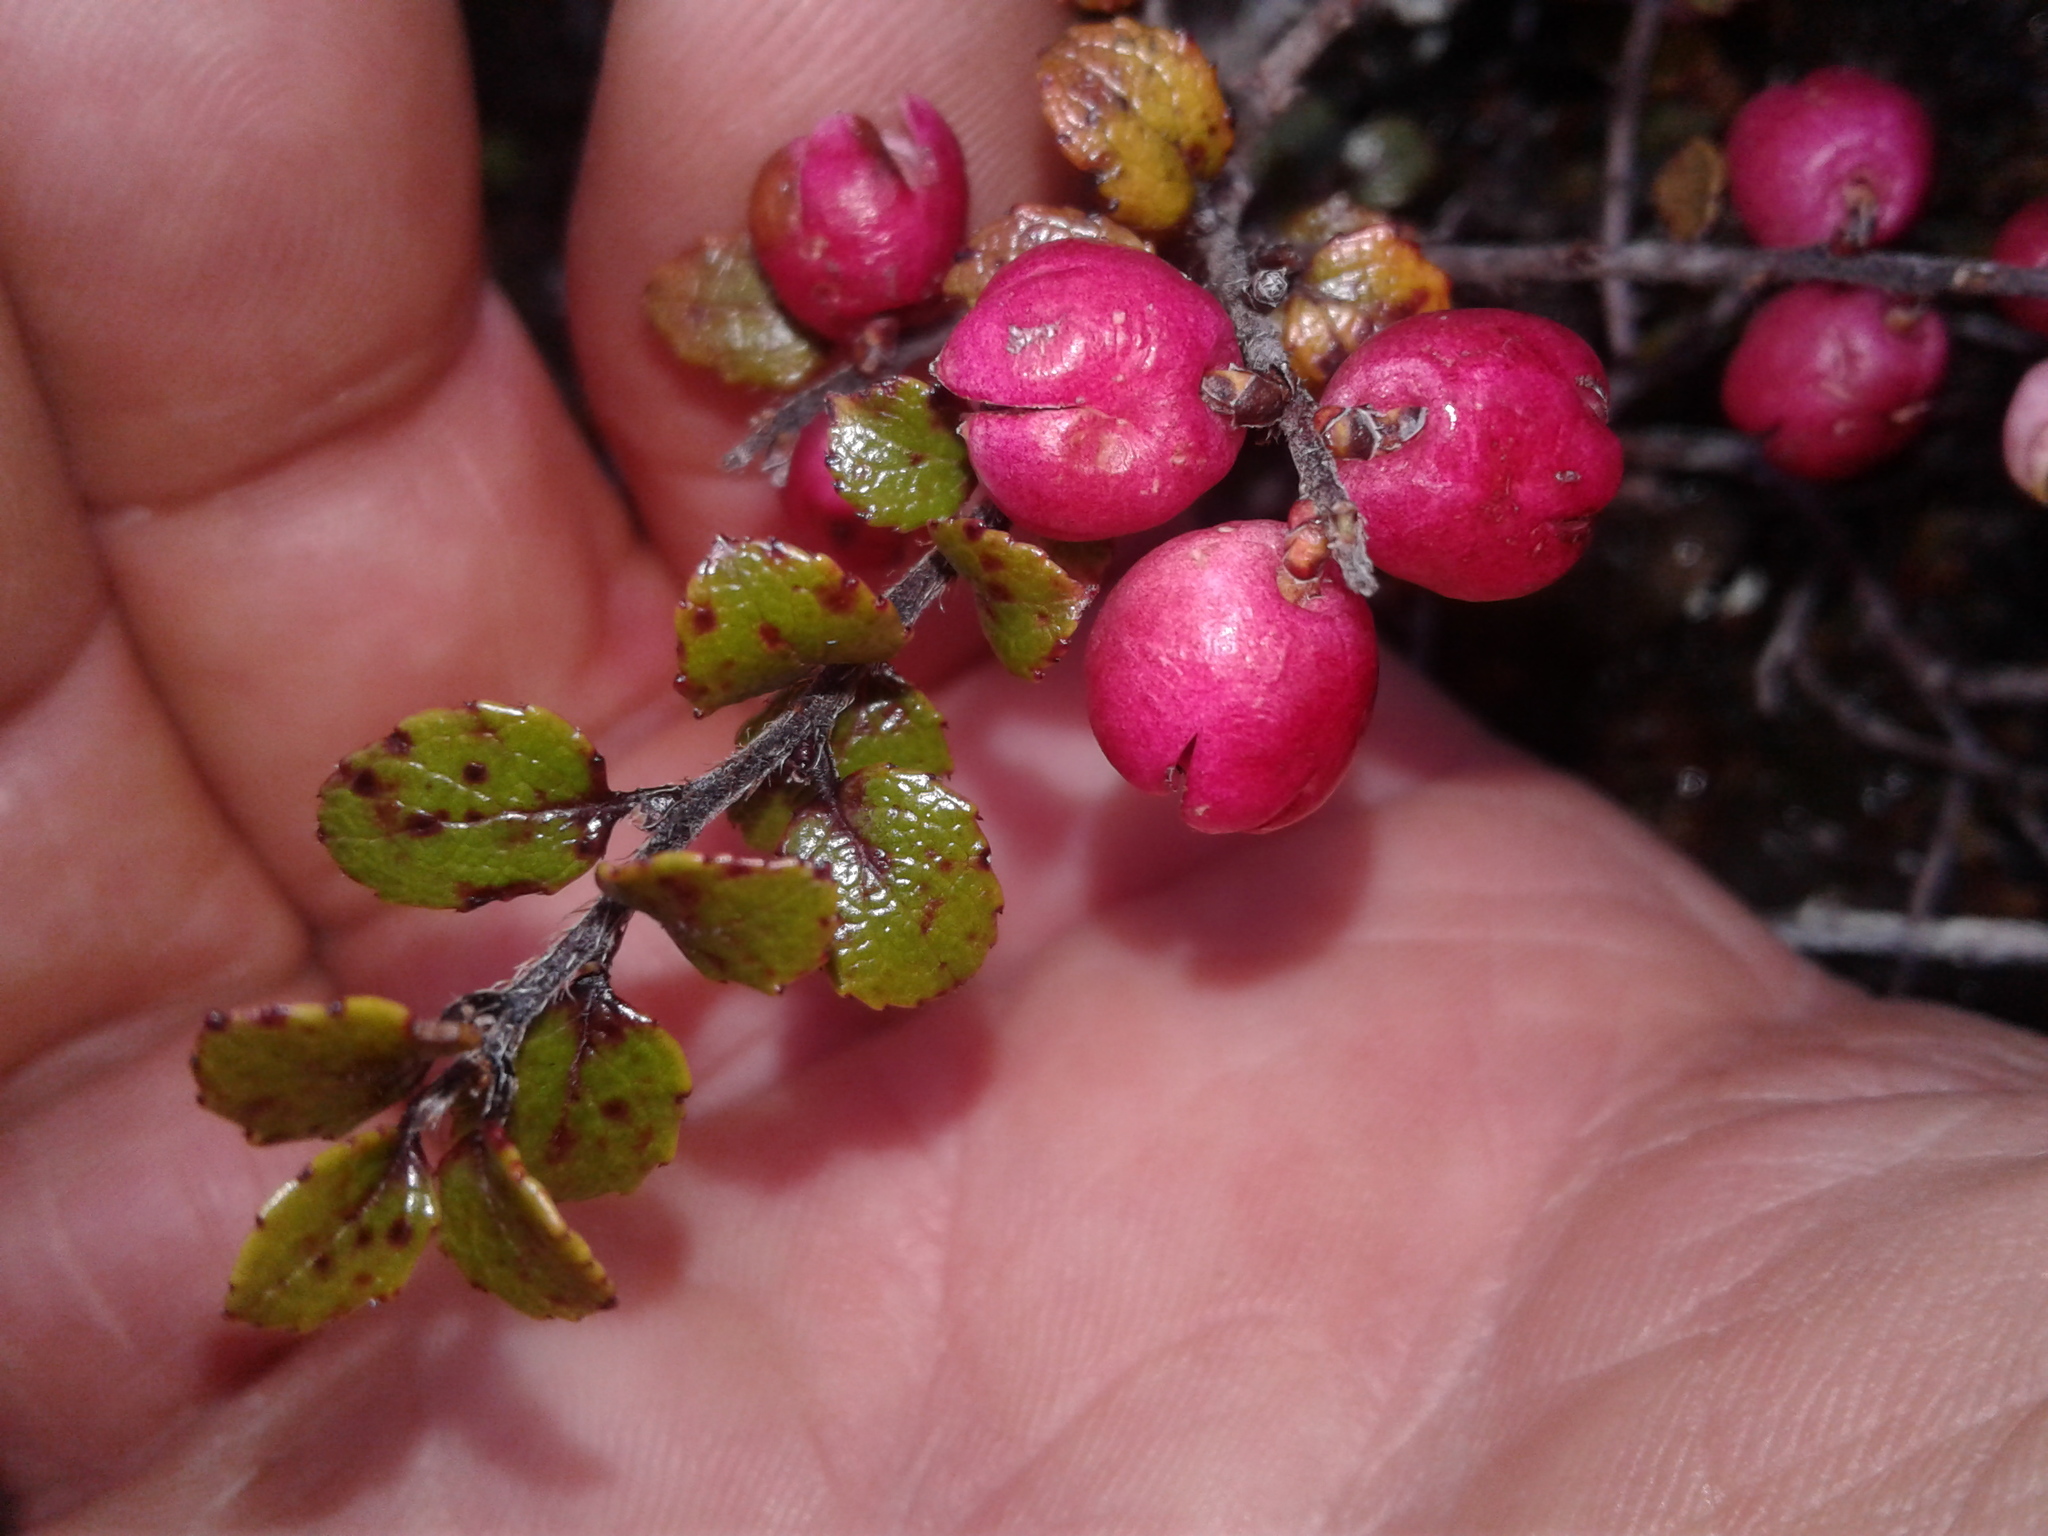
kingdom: Plantae
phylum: Tracheophyta
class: Magnoliopsida
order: Ericales
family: Ericaceae
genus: Gaultheria
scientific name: Gaultheria antipoda
